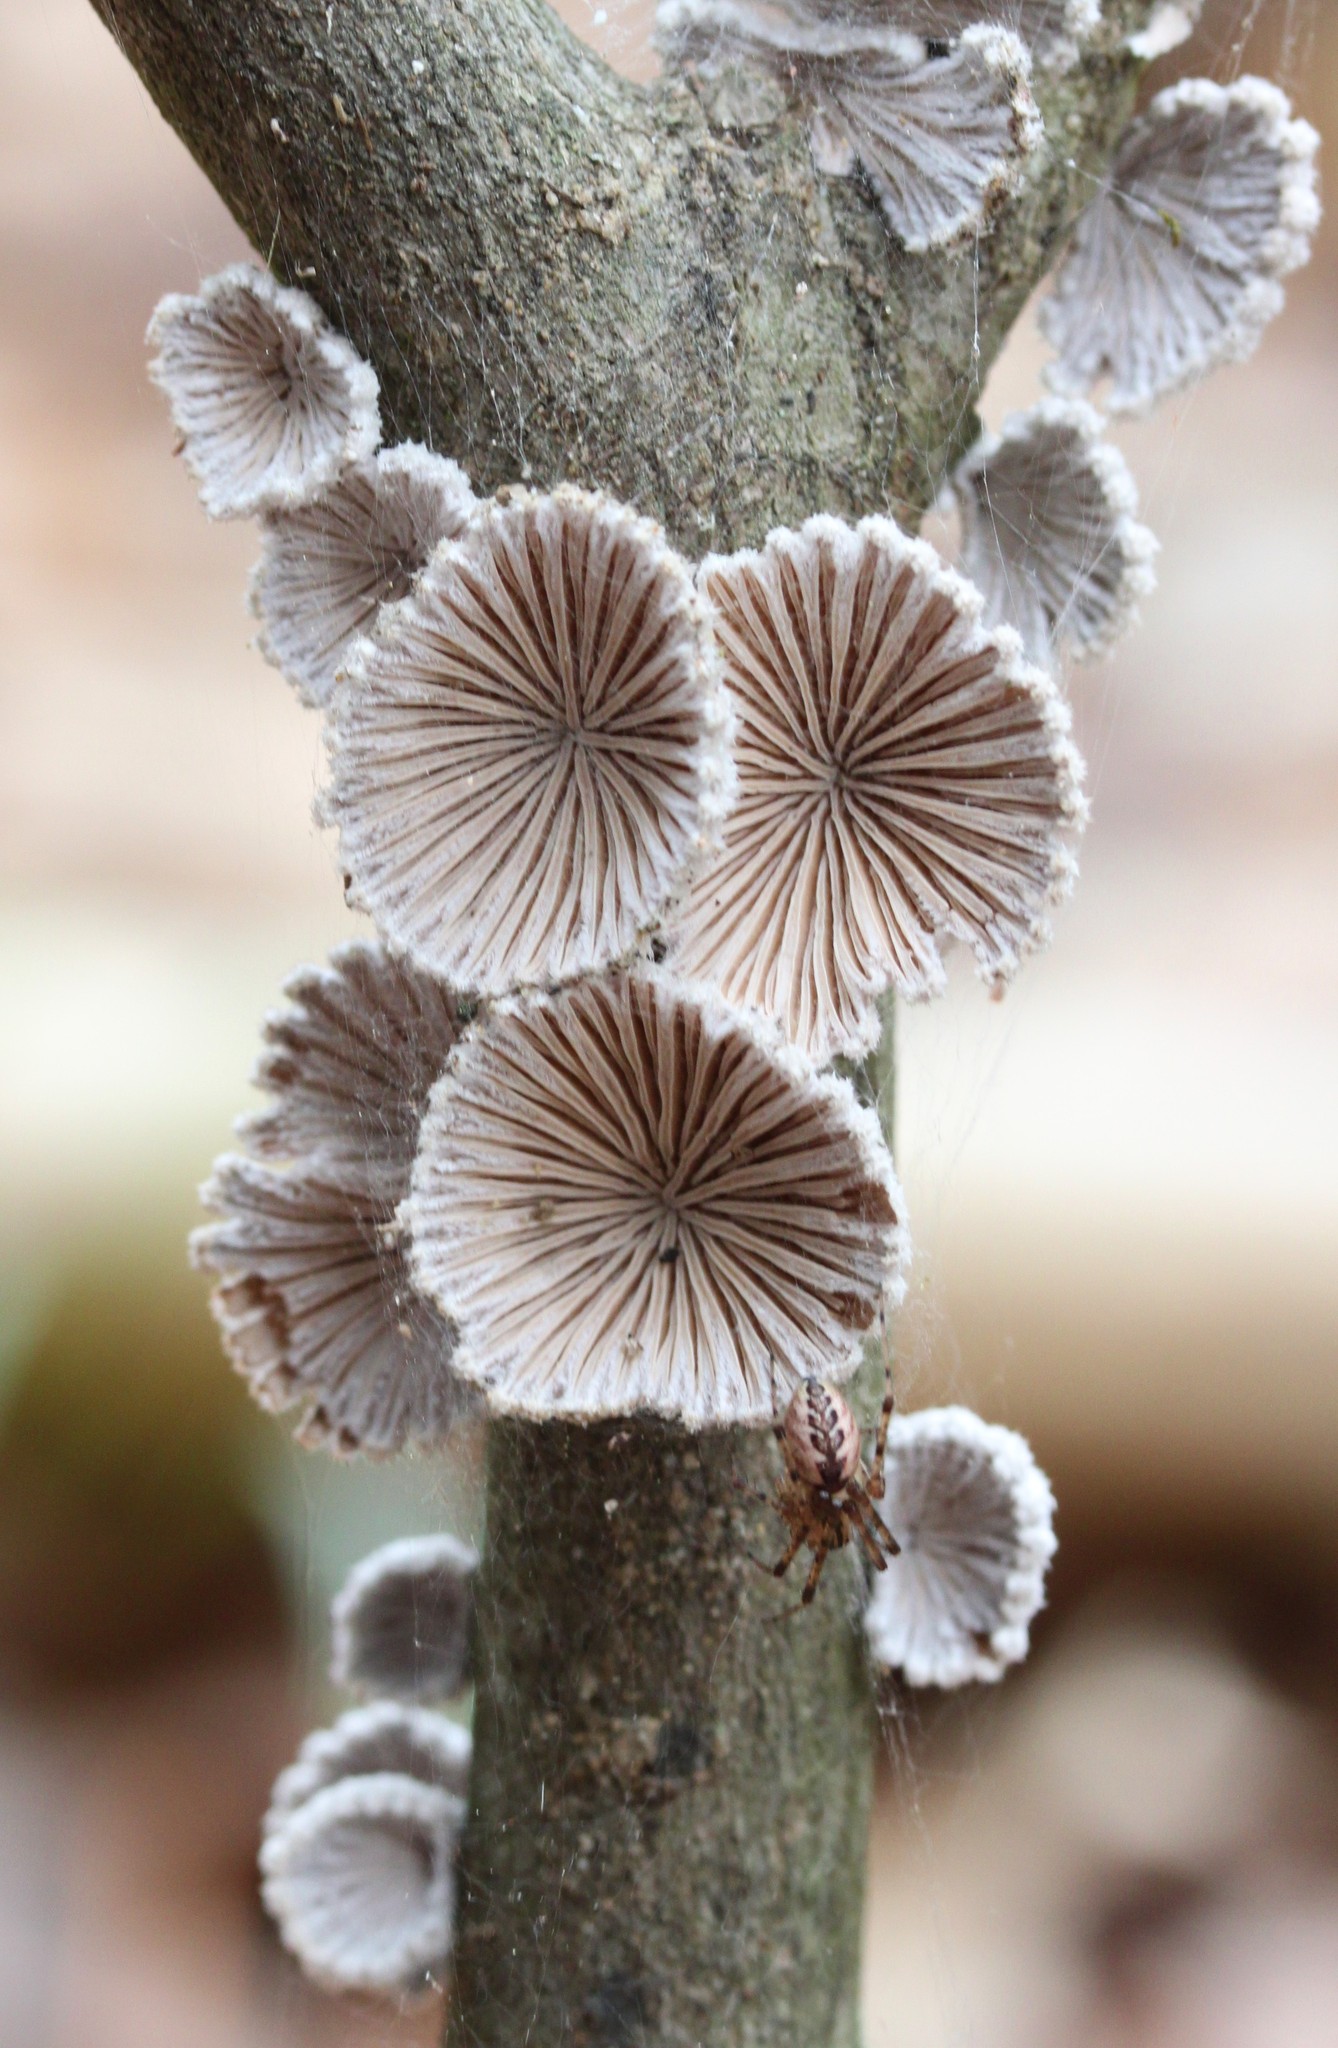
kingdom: Fungi
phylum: Basidiomycota
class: Agaricomycetes
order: Agaricales
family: Schizophyllaceae
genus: Schizophyllum
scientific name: Schizophyllum commune
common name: Common porecrust
